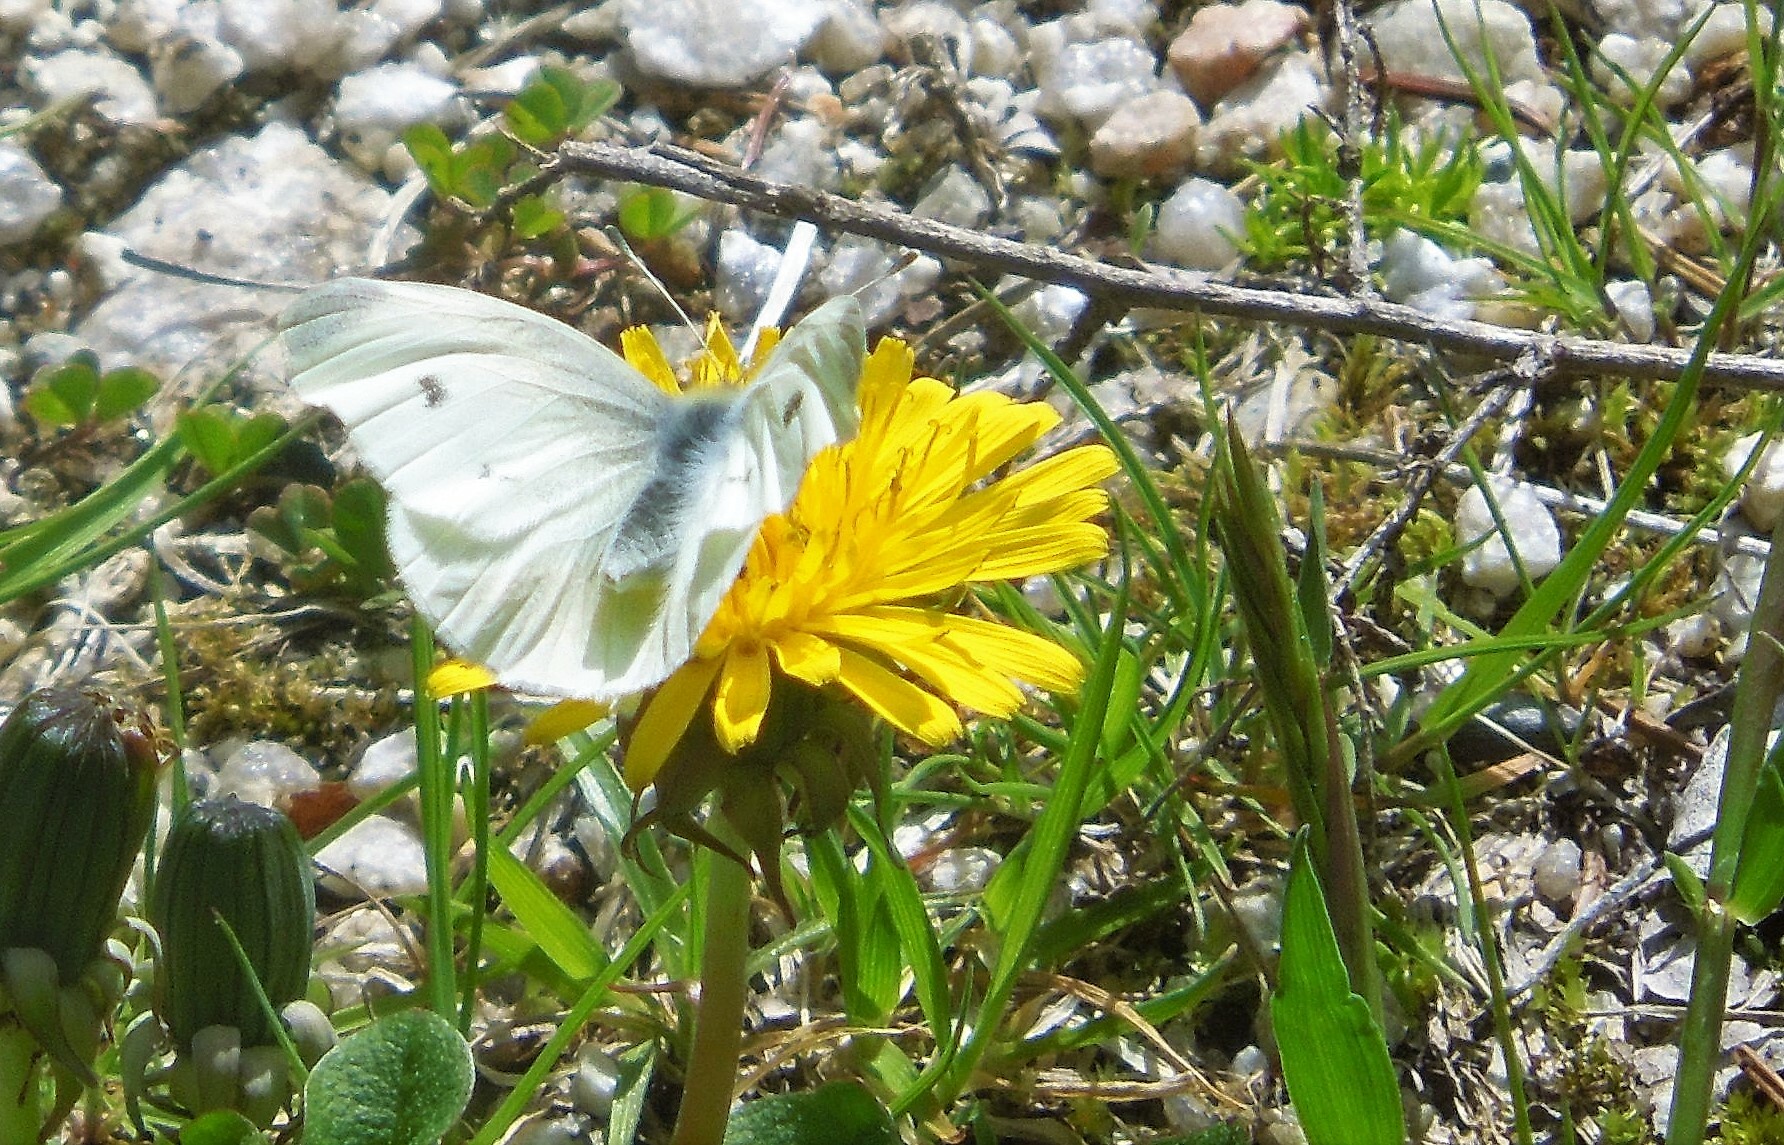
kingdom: Animalia
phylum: Arthropoda
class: Insecta
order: Lepidoptera
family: Pieridae
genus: Pieris
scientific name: Pieris rapae
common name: Small white
